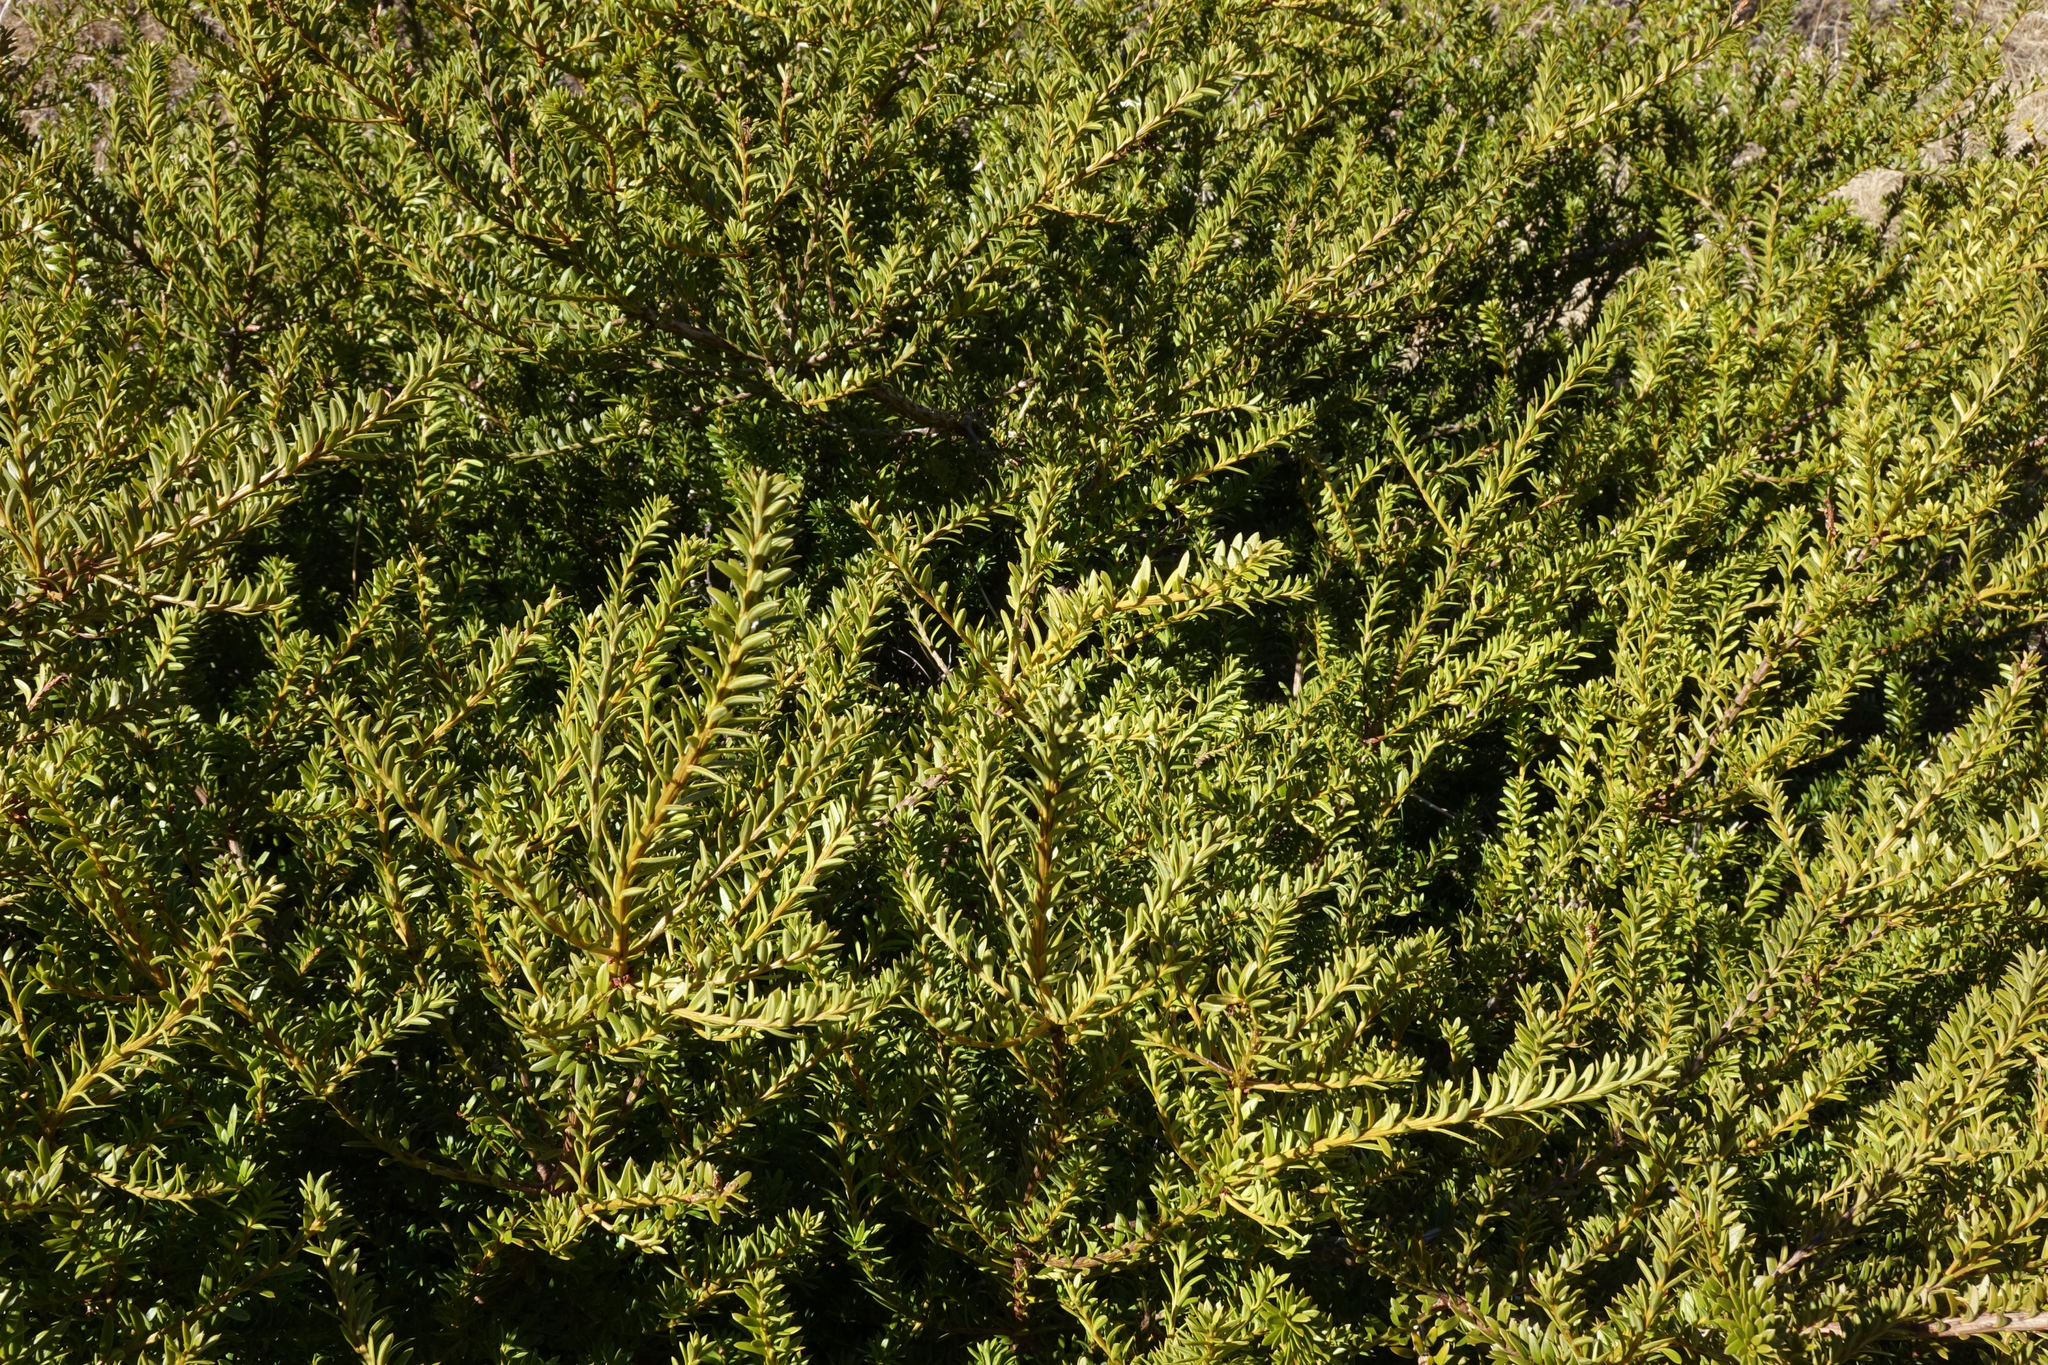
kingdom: Plantae
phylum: Tracheophyta
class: Pinopsida
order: Pinales
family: Podocarpaceae
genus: Podocarpus
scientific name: Podocarpus nivalis
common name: Alpine totara
